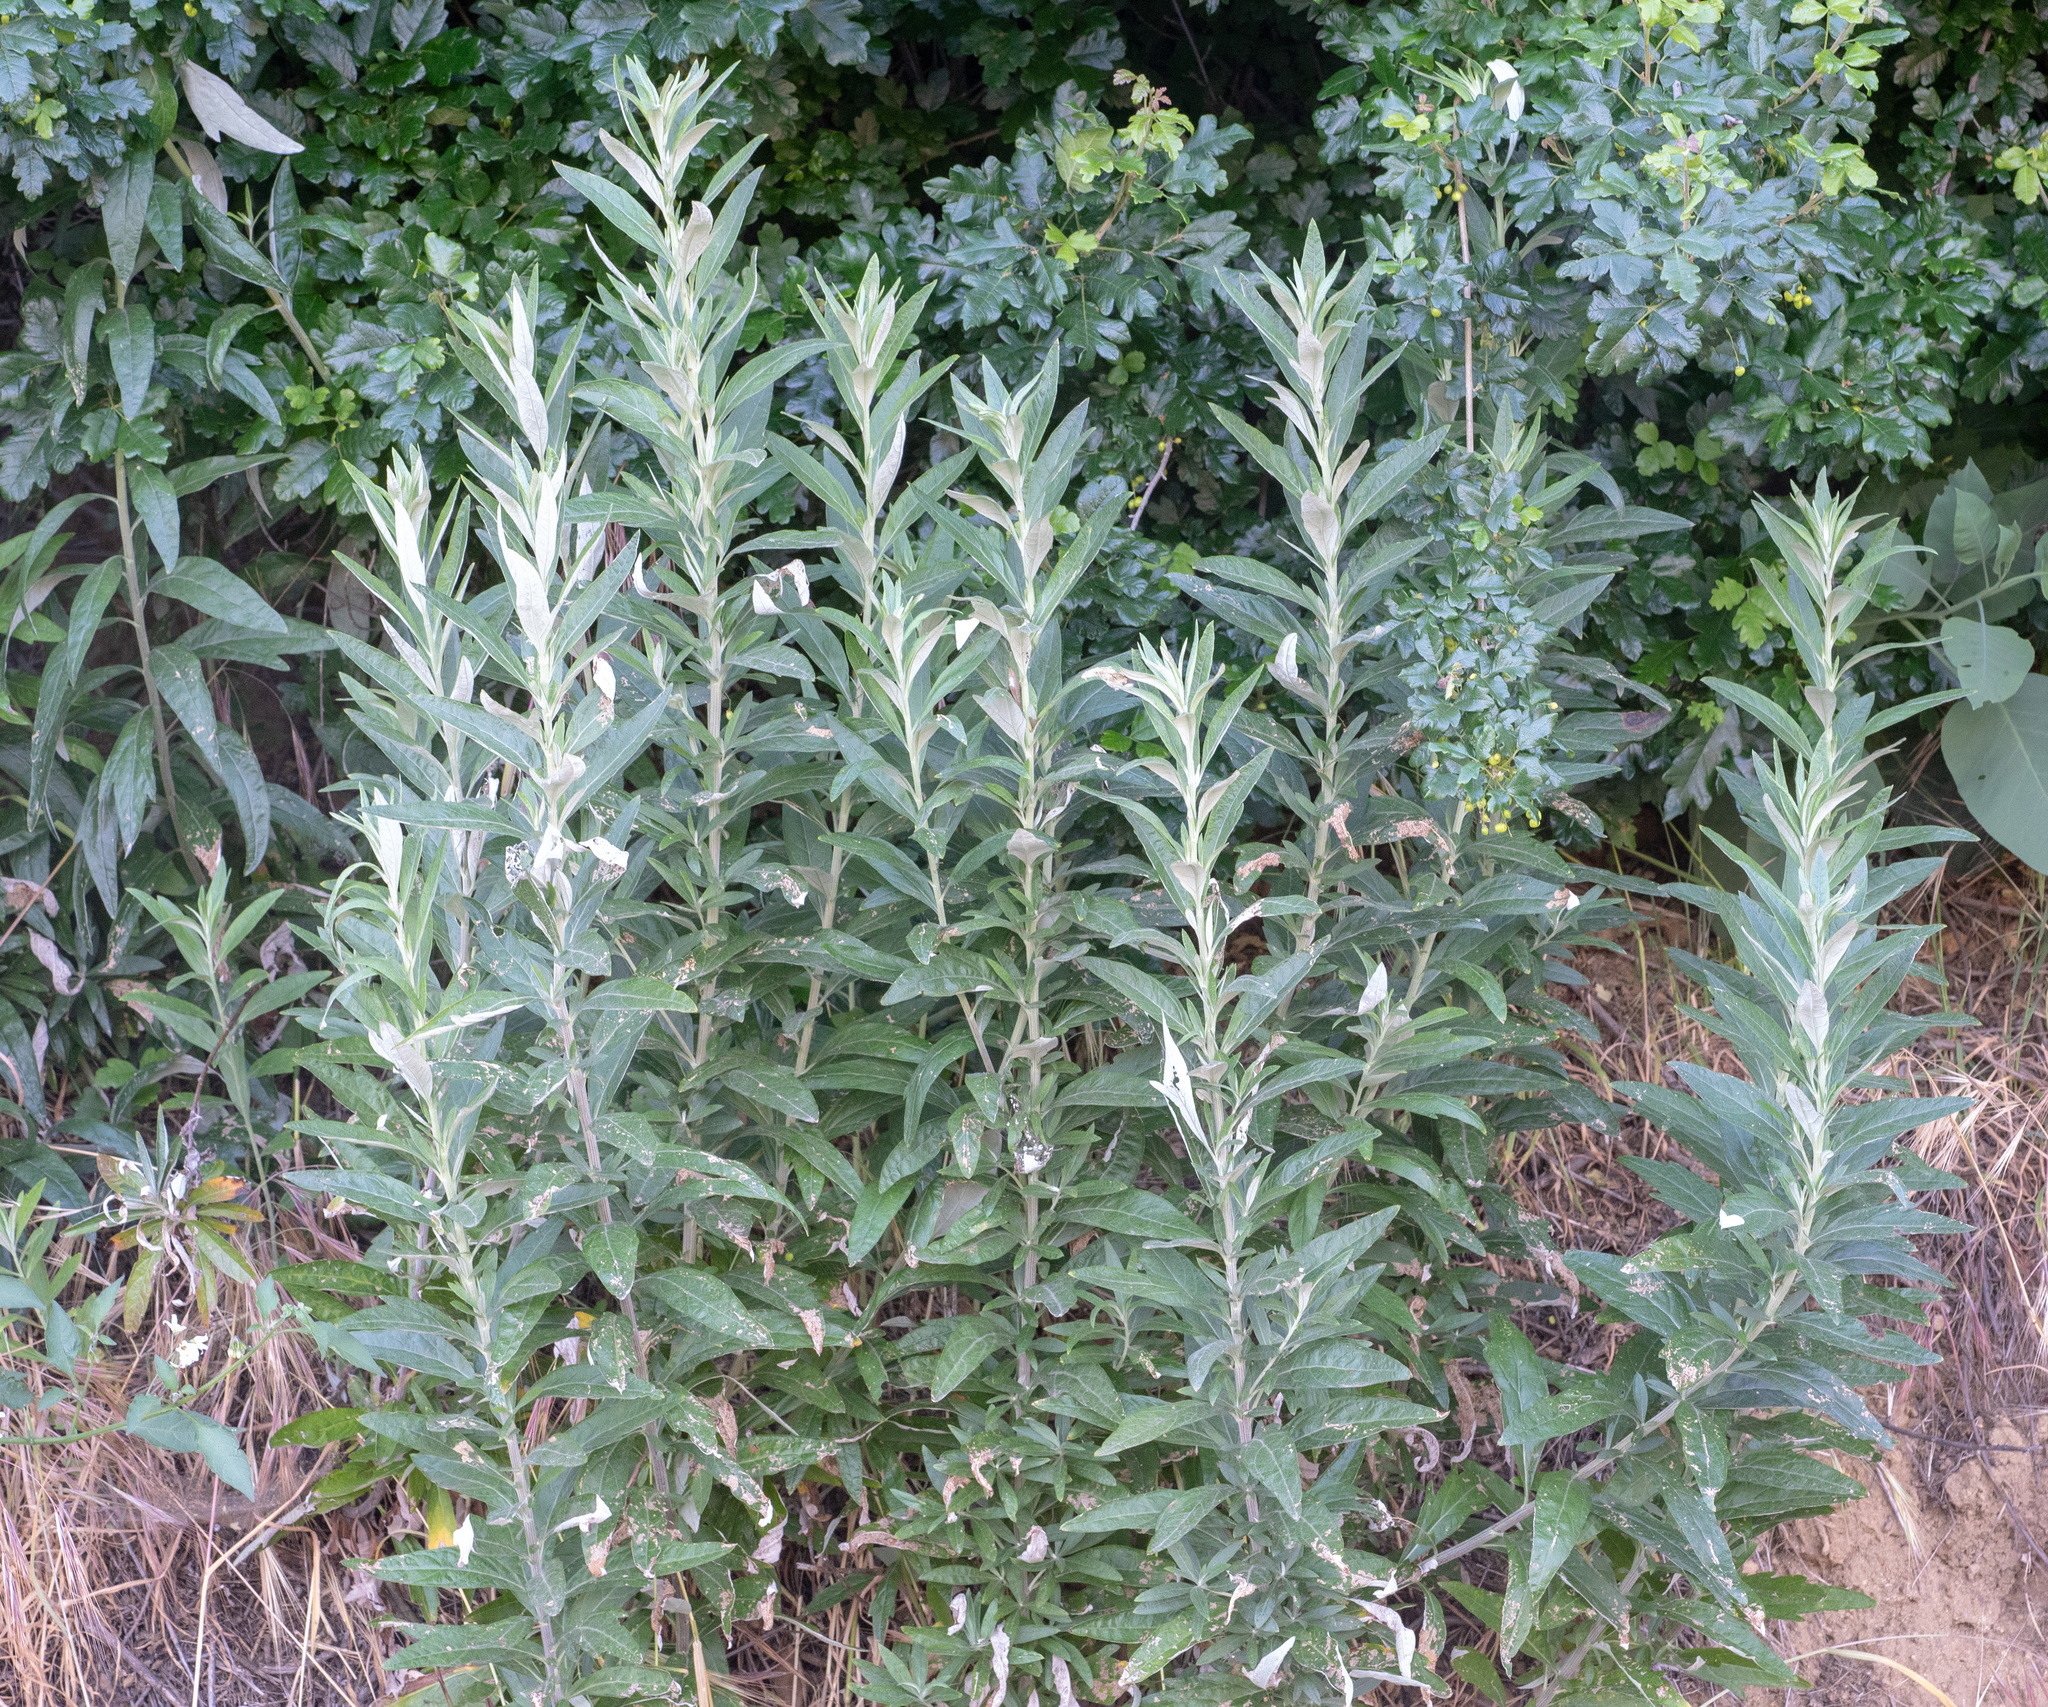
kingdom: Plantae
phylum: Tracheophyta
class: Magnoliopsida
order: Asterales
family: Asteraceae
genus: Artemisia
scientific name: Artemisia douglasiana
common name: Northwest mugwort
